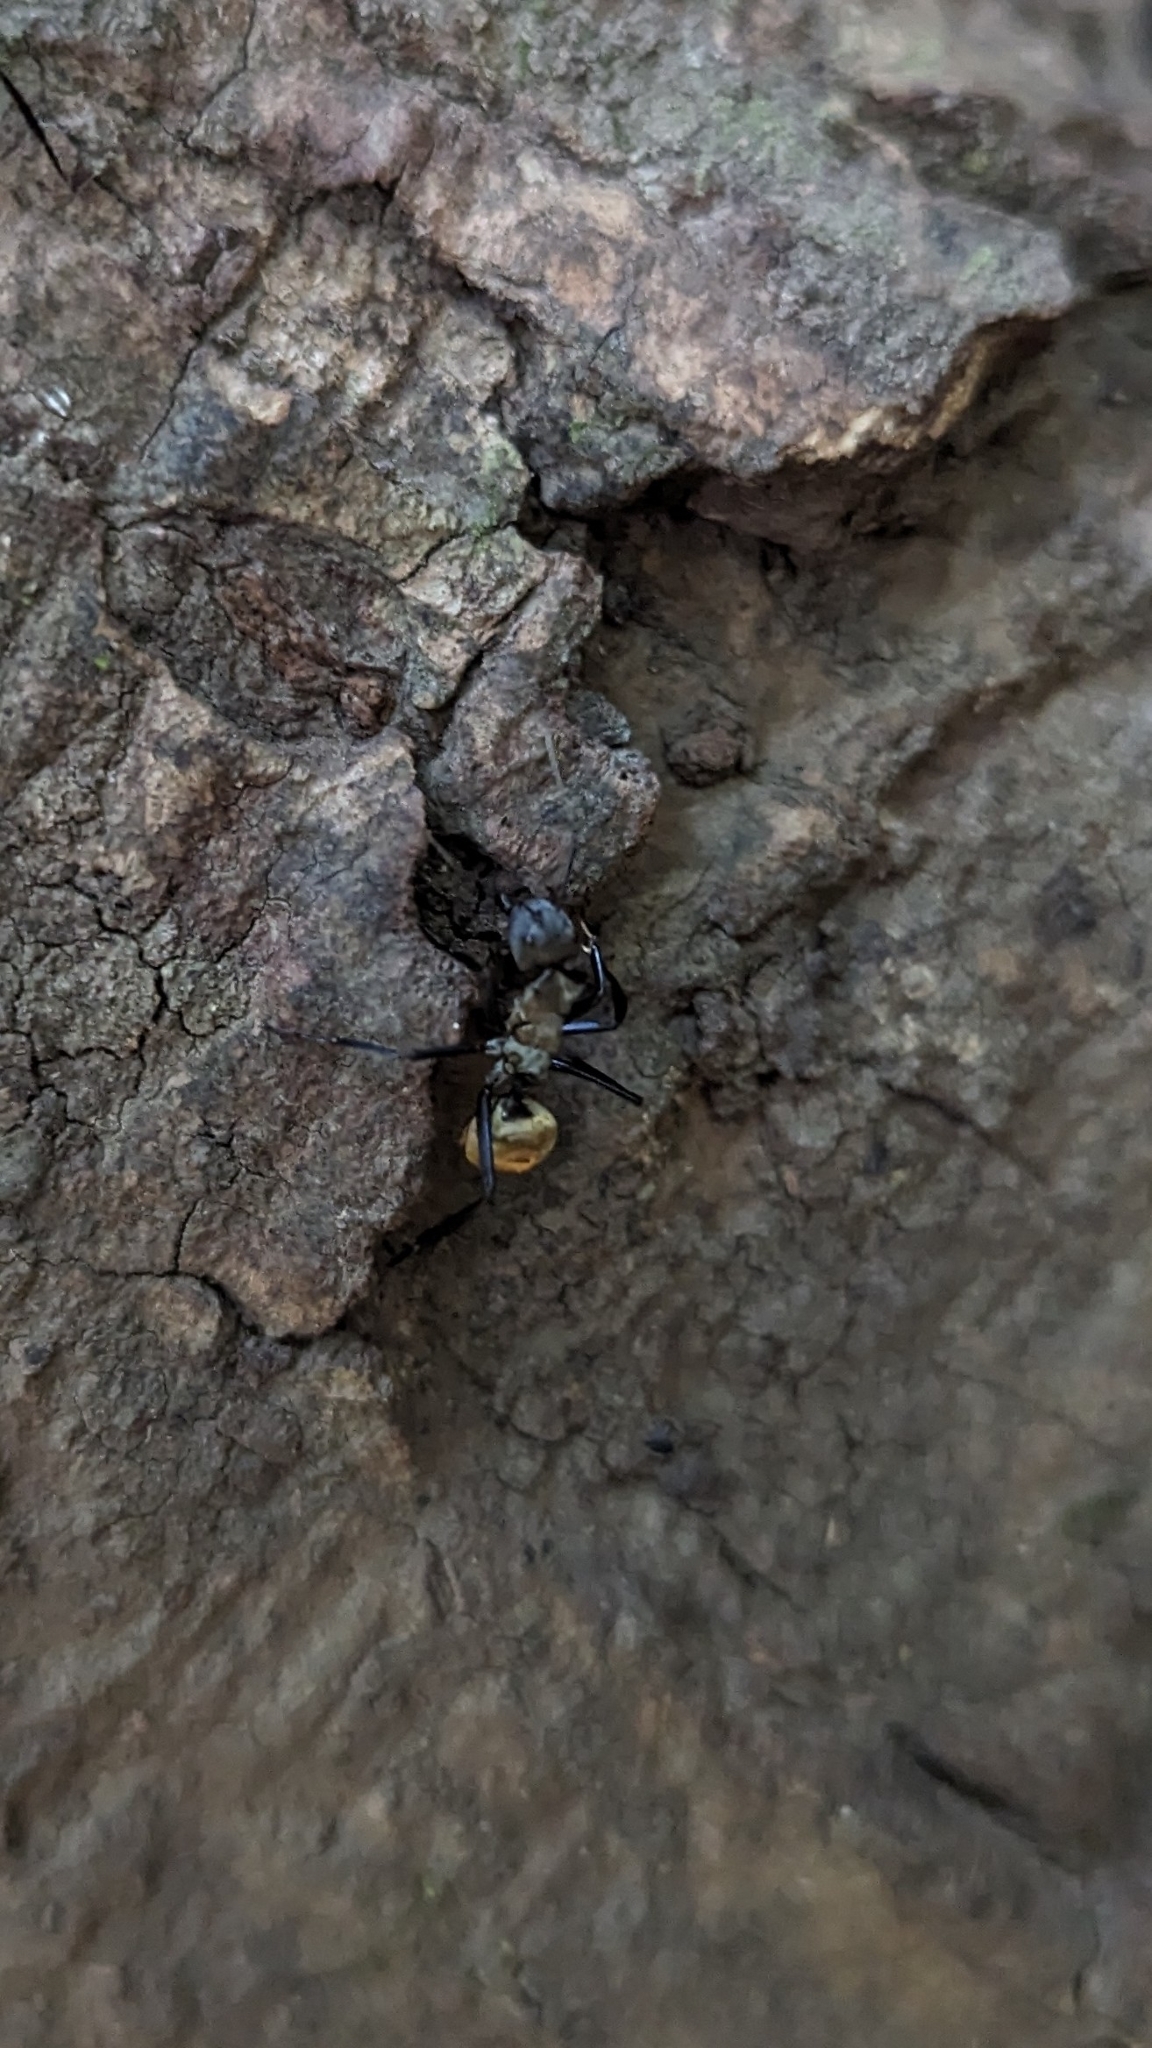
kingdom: Animalia
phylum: Arthropoda
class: Insecta
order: Hymenoptera
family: Formicidae
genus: Camponotus
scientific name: Camponotus sericeiventris
